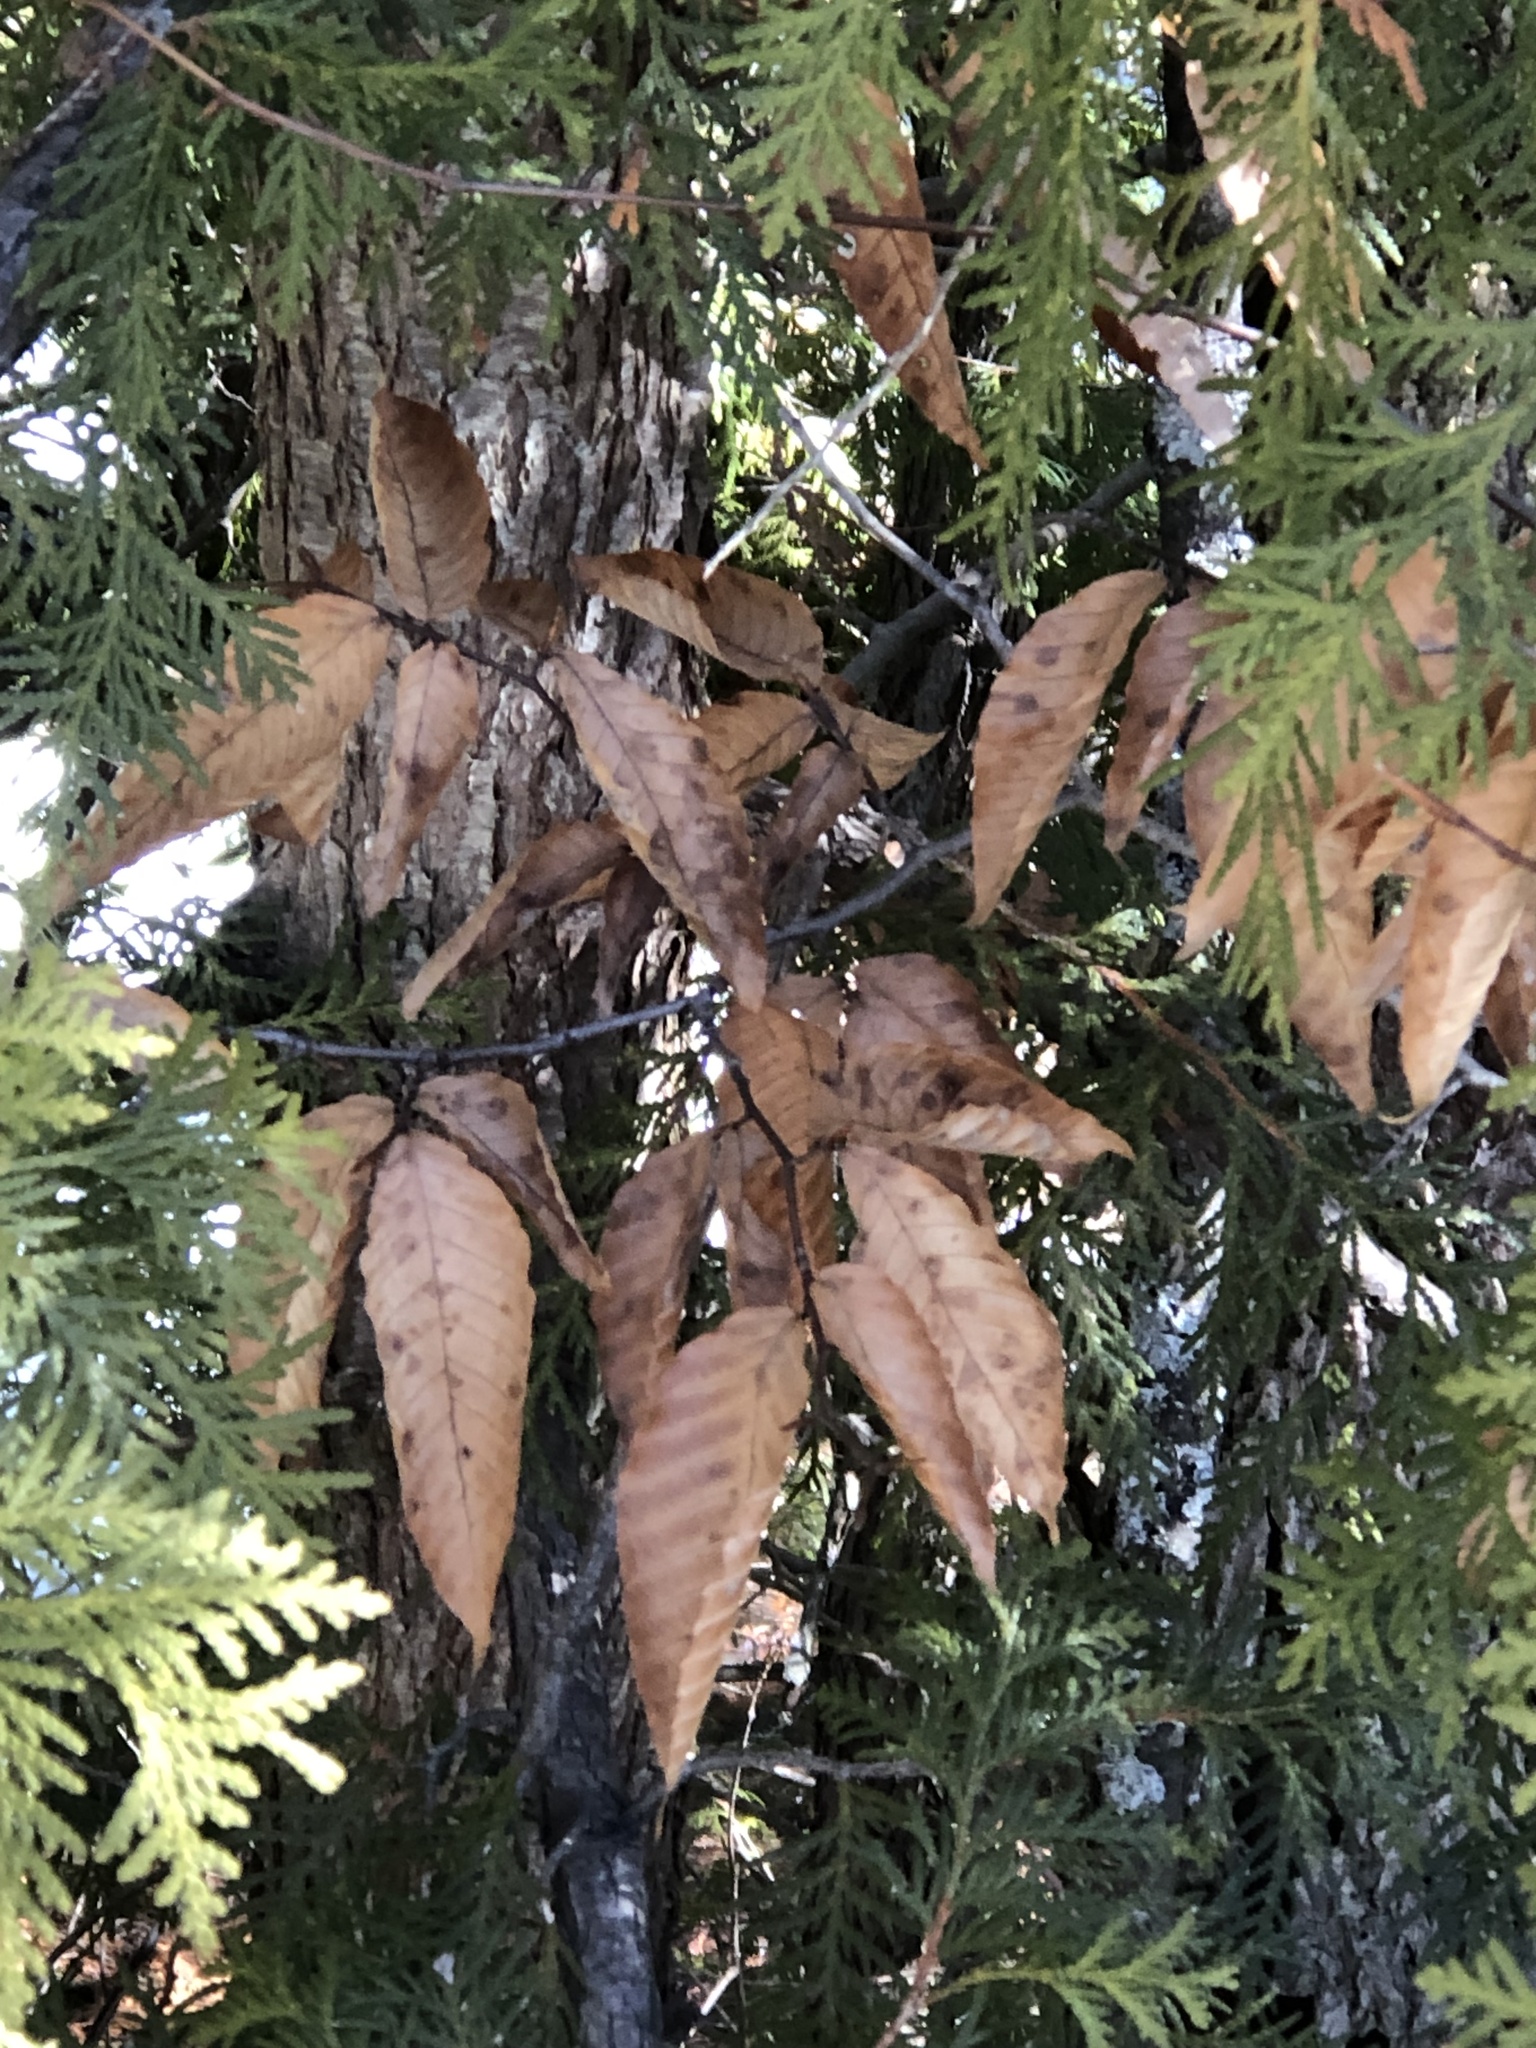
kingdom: Plantae
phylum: Tracheophyta
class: Magnoliopsida
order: Fagales
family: Fagaceae
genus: Fagus
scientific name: Fagus grandifolia
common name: American beech
